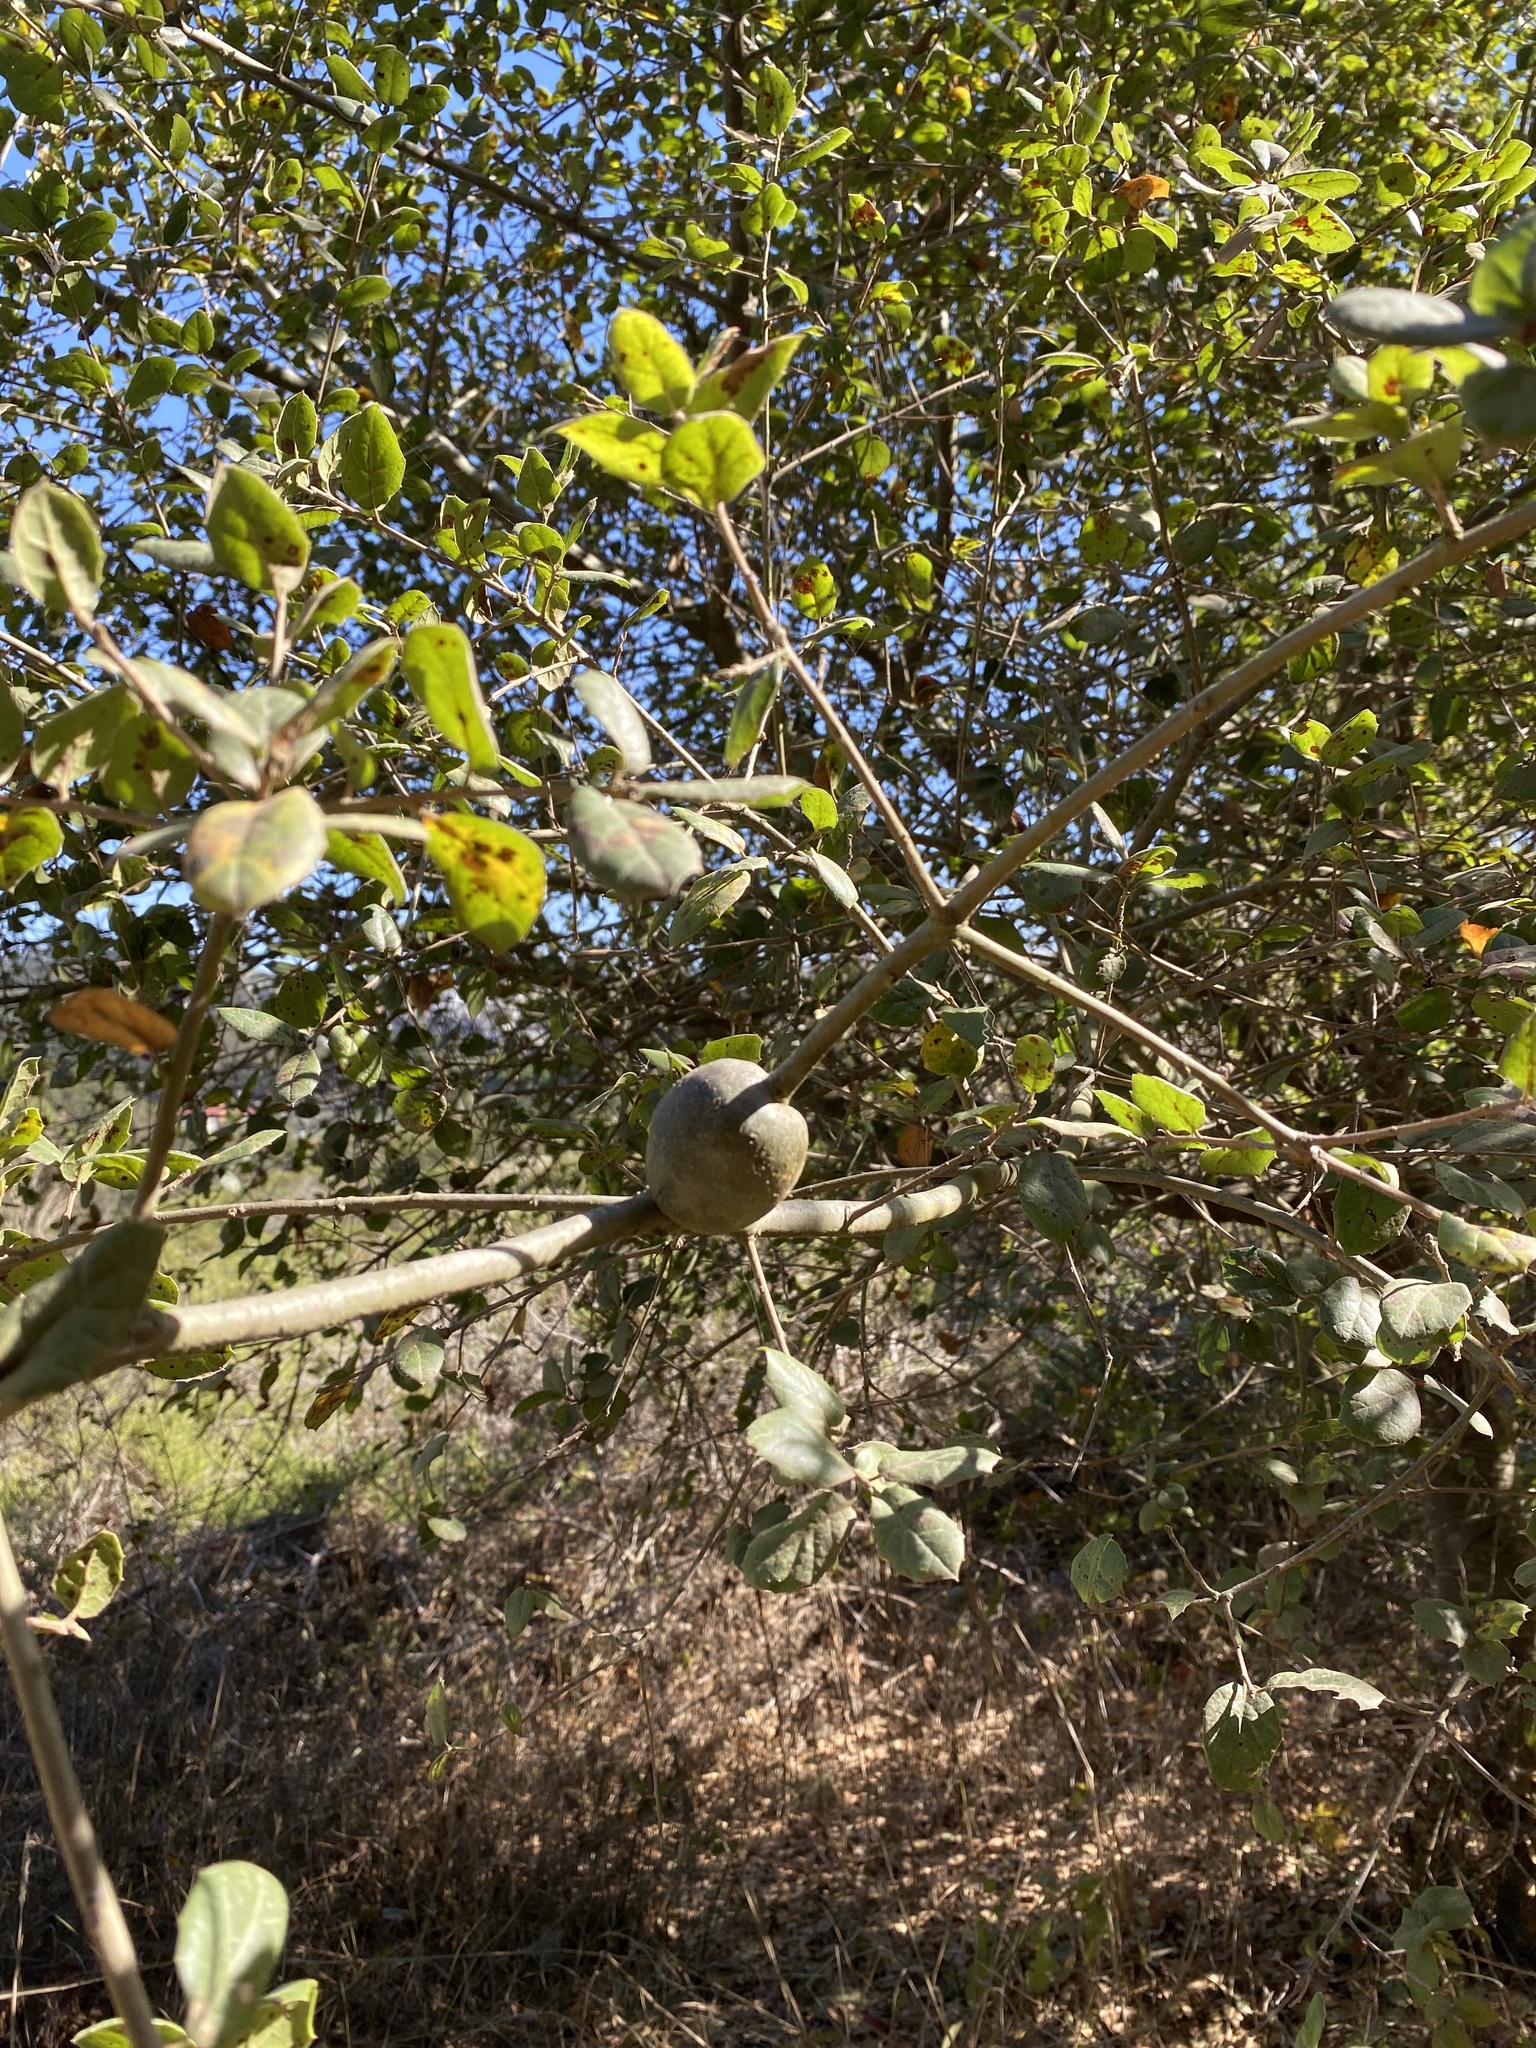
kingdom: Animalia
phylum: Arthropoda
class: Insecta
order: Hymenoptera
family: Cynipidae
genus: Callirhytis
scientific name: Callirhytis
